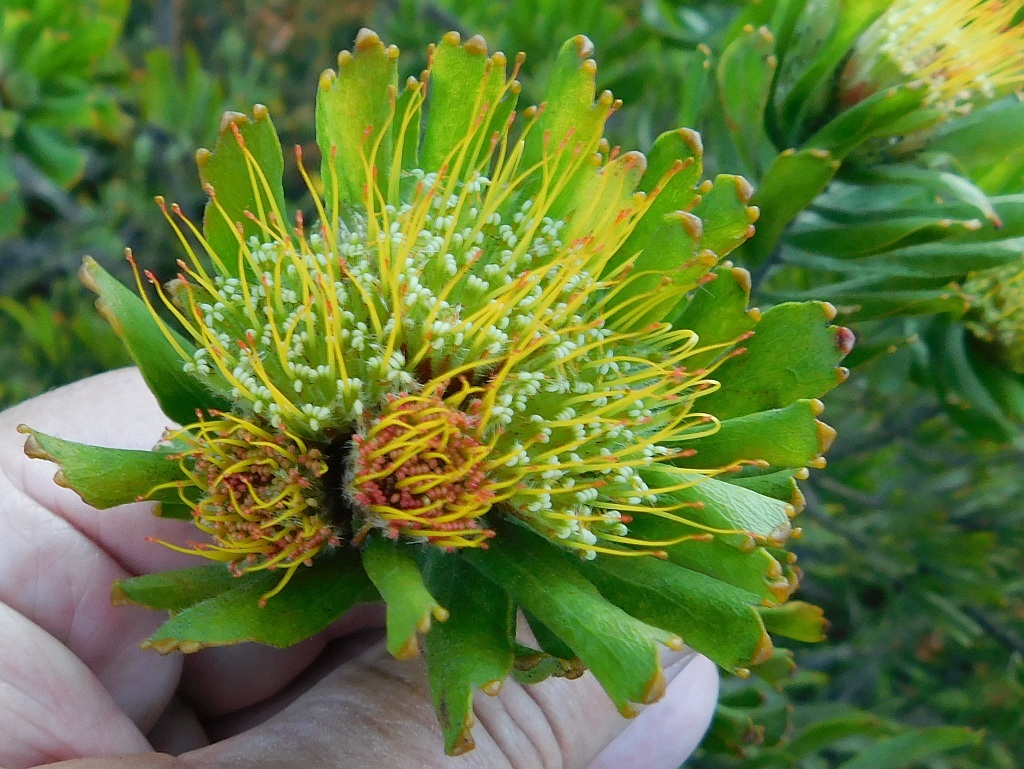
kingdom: Plantae
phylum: Tracheophyta
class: Magnoliopsida
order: Proteales
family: Proteaceae
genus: Leucospermum
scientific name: Leucospermum oleifolium
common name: Matches
